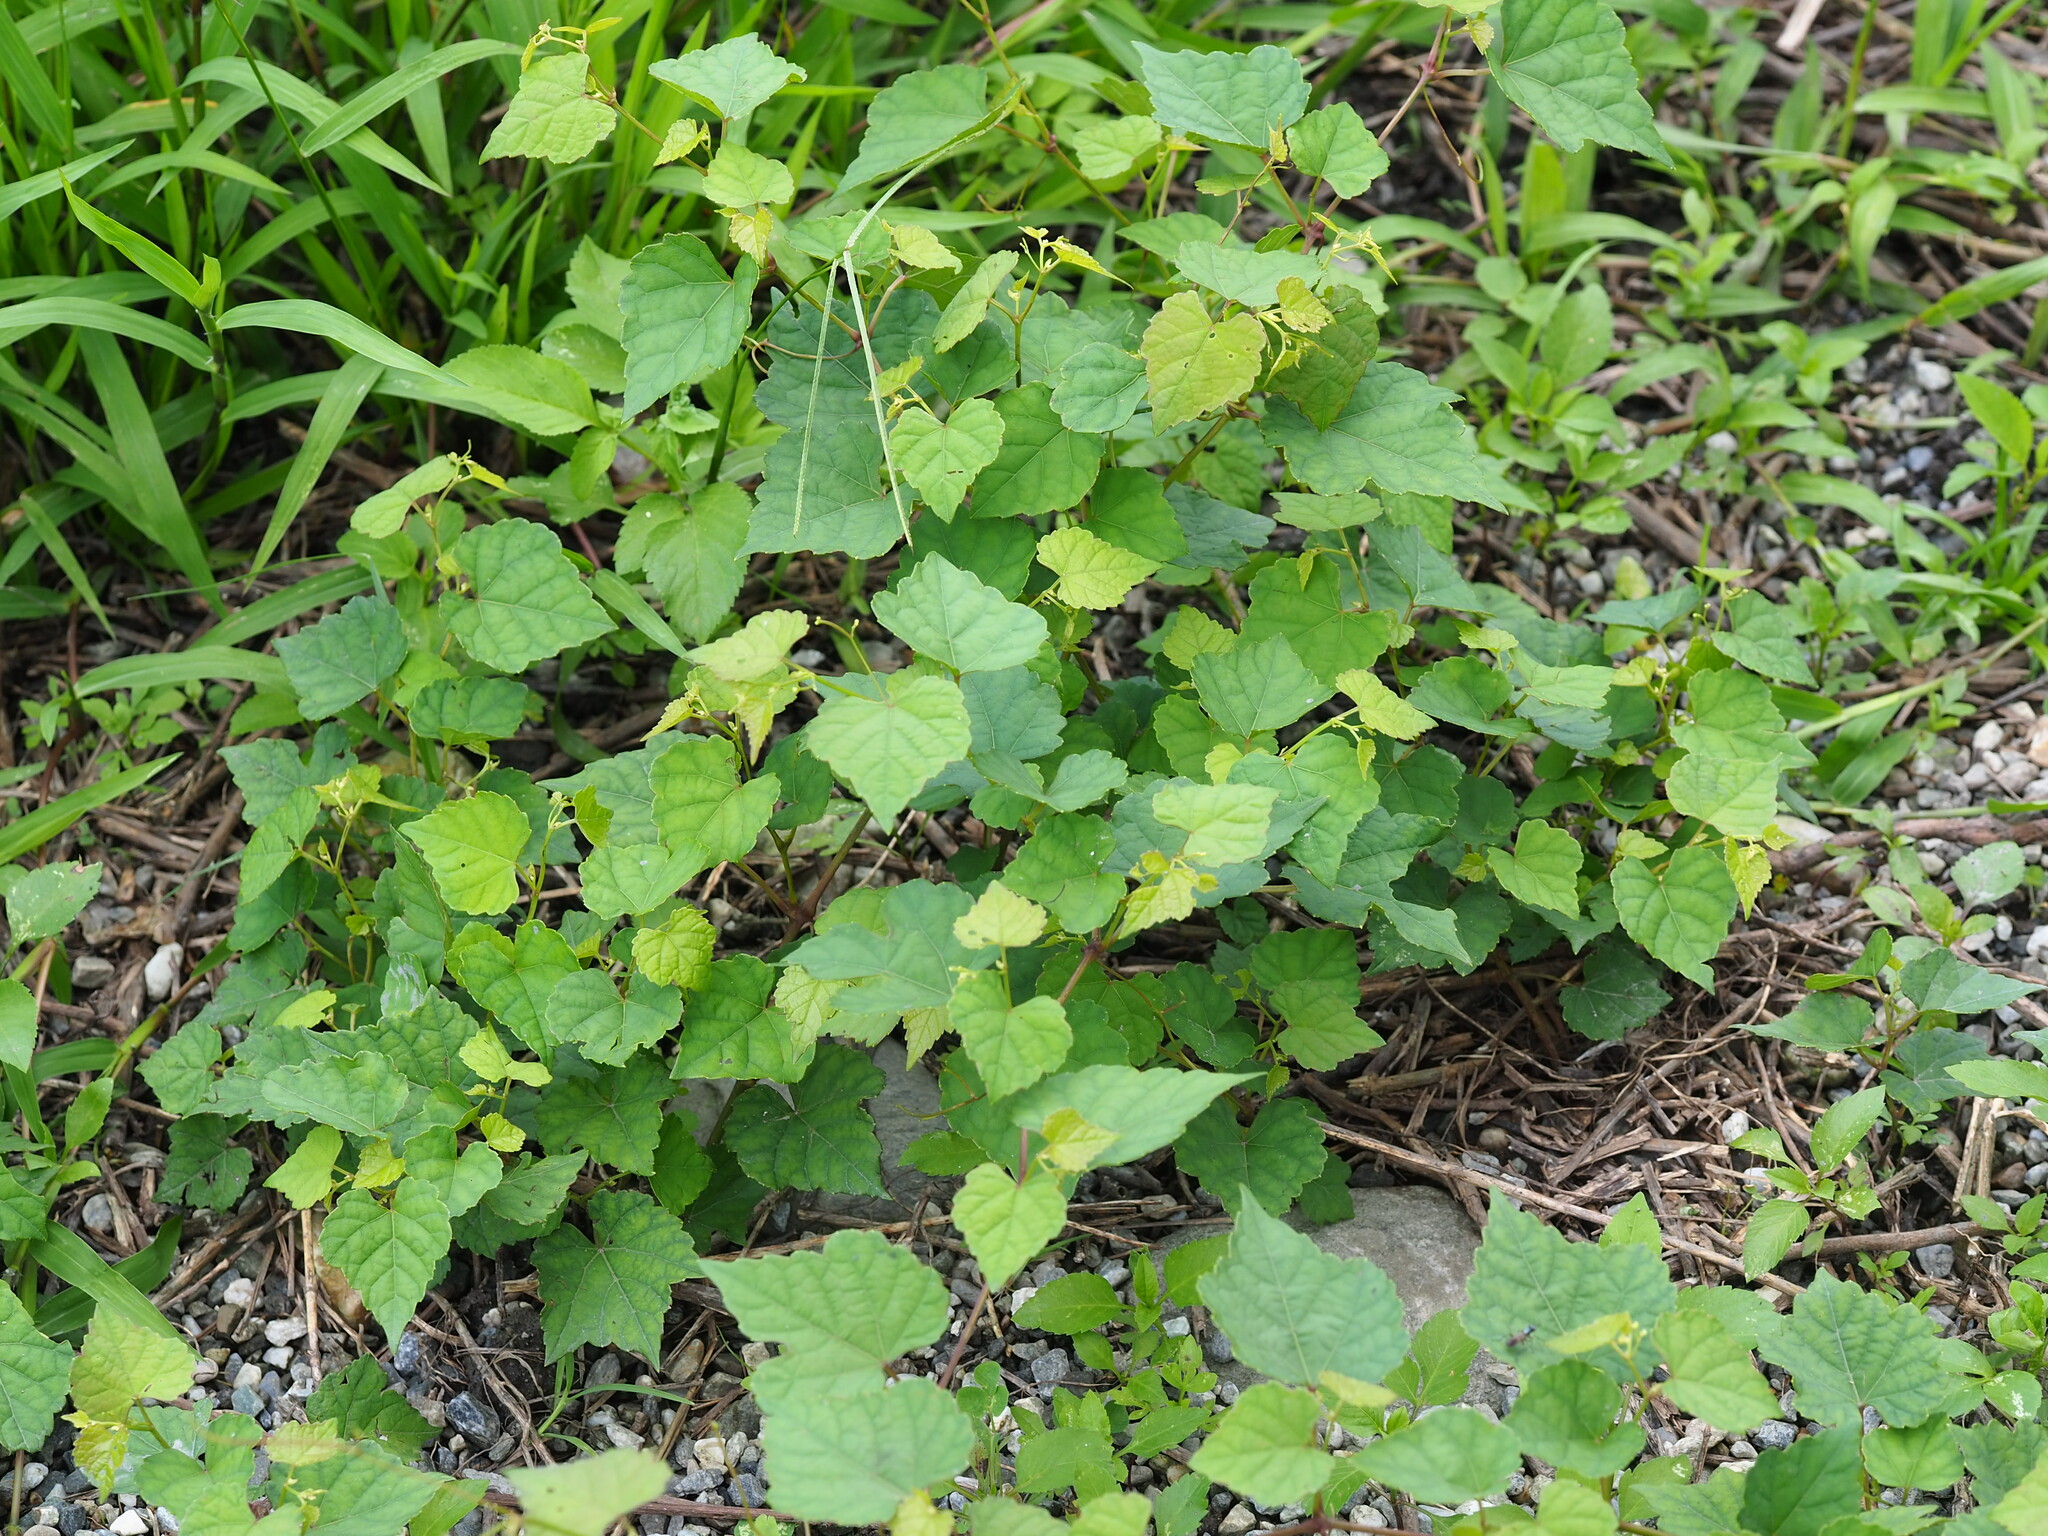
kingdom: Plantae
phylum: Tracheophyta
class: Magnoliopsida
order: Vitales
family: Vitaceae
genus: Ampelopsis
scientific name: Ampelopsis glandulosa
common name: Amur peppervine
